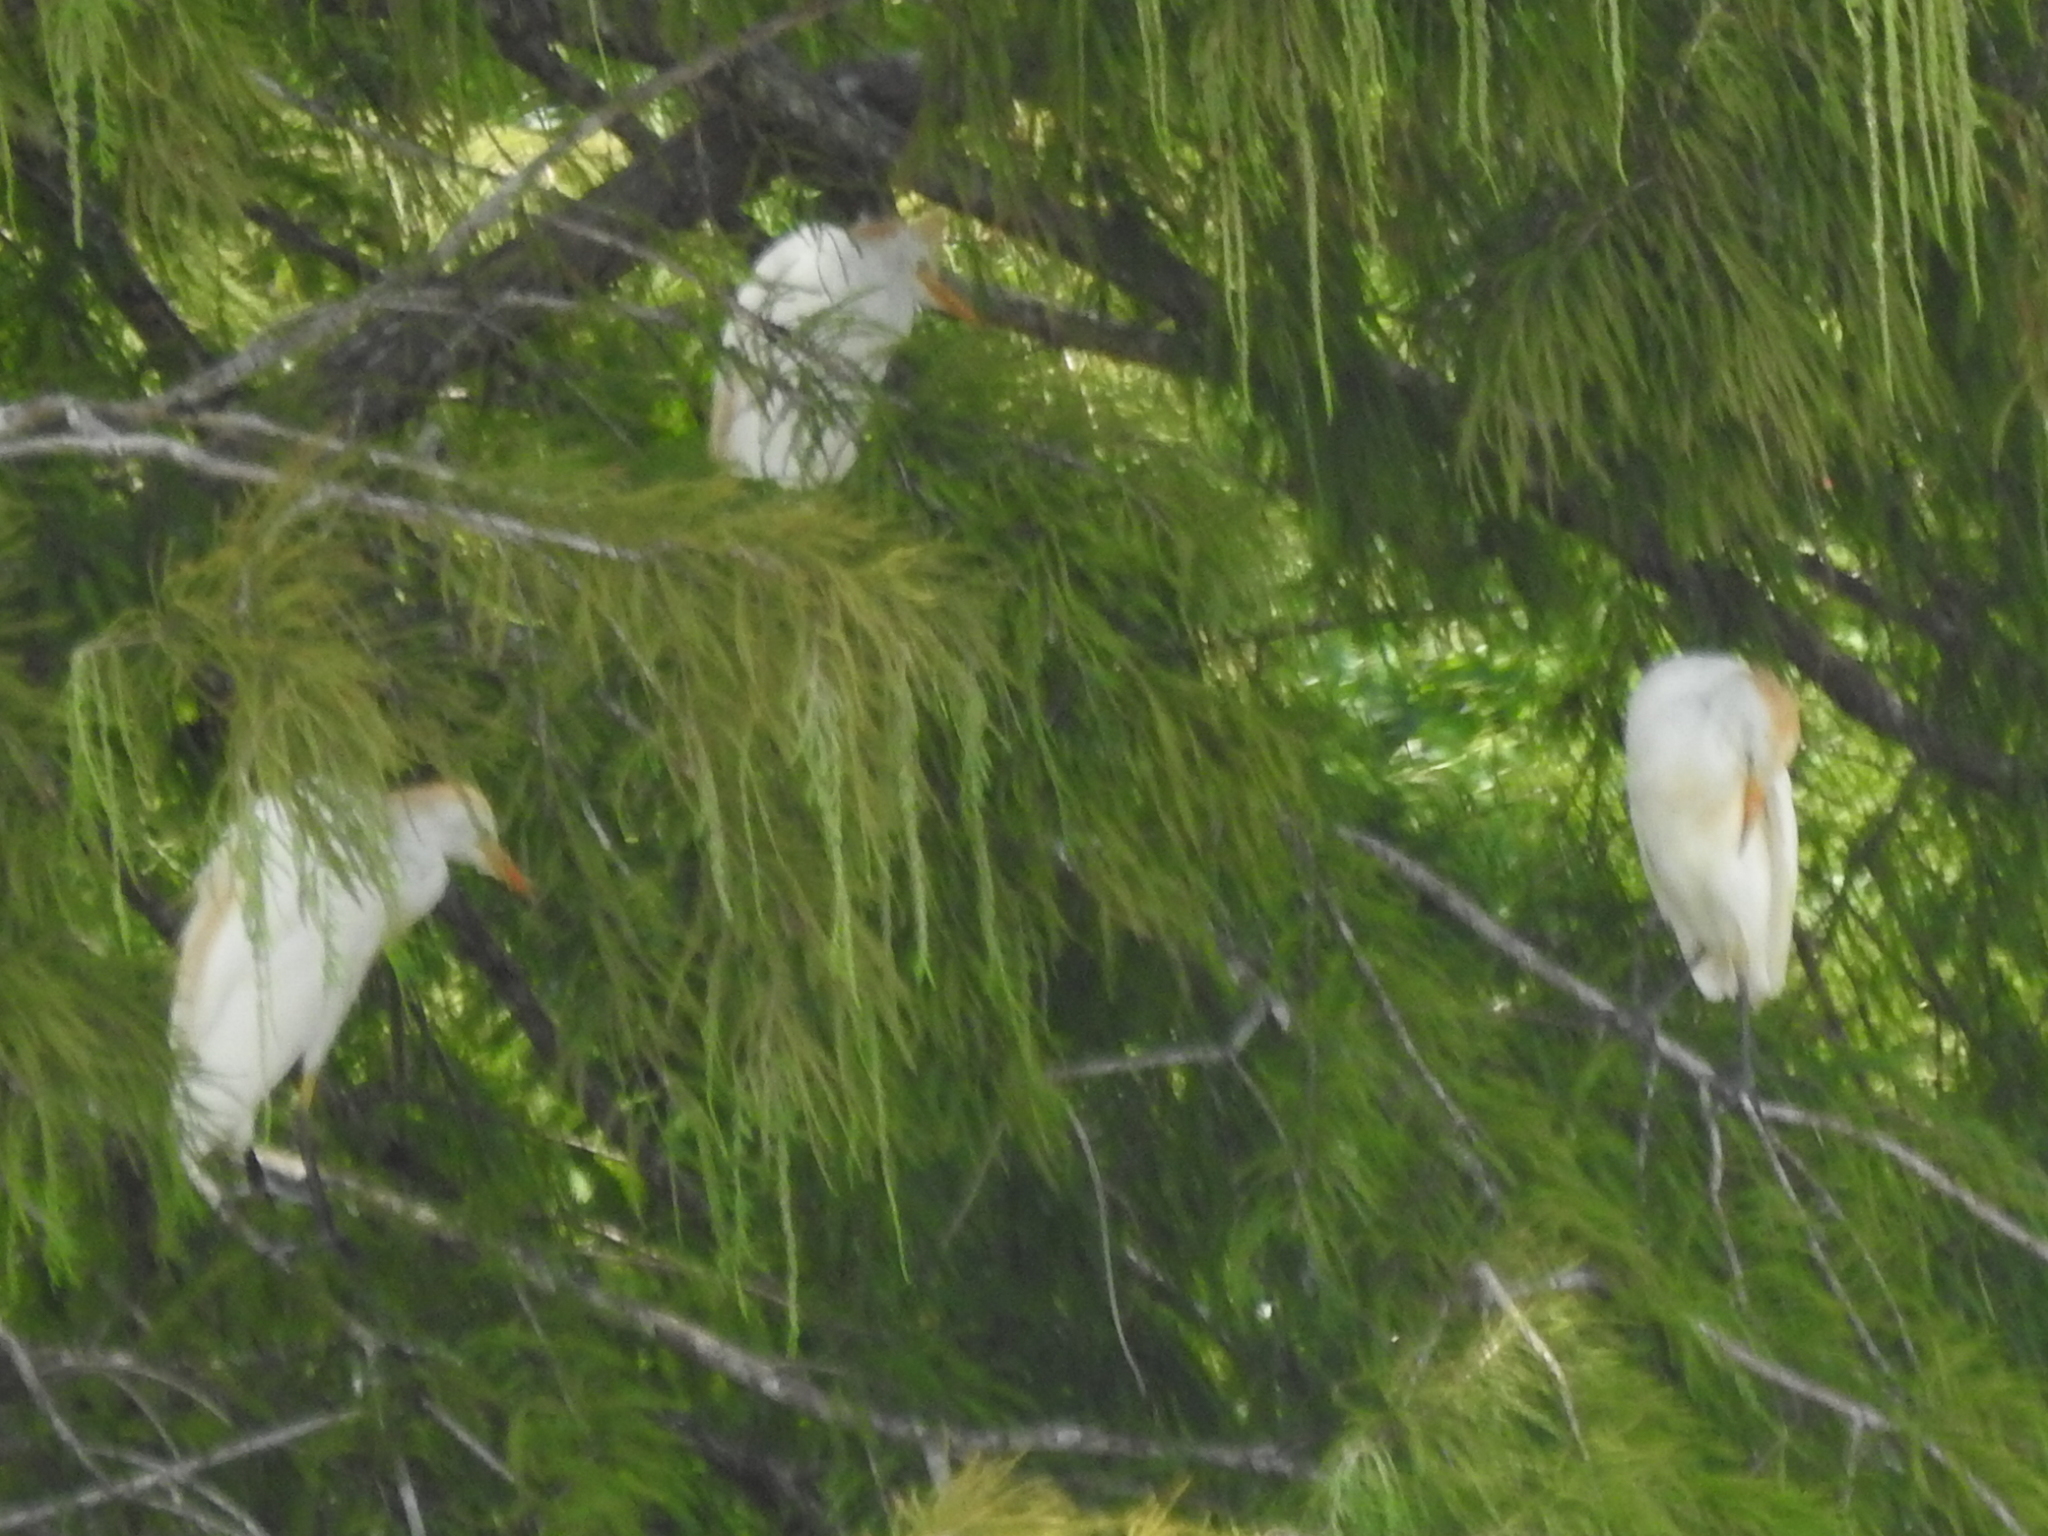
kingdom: Animalia
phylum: Chordata
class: Aves
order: Pelecaniformes
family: Ardeidae
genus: Bubulcus
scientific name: Bubulcus ibis
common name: Cattle egret
